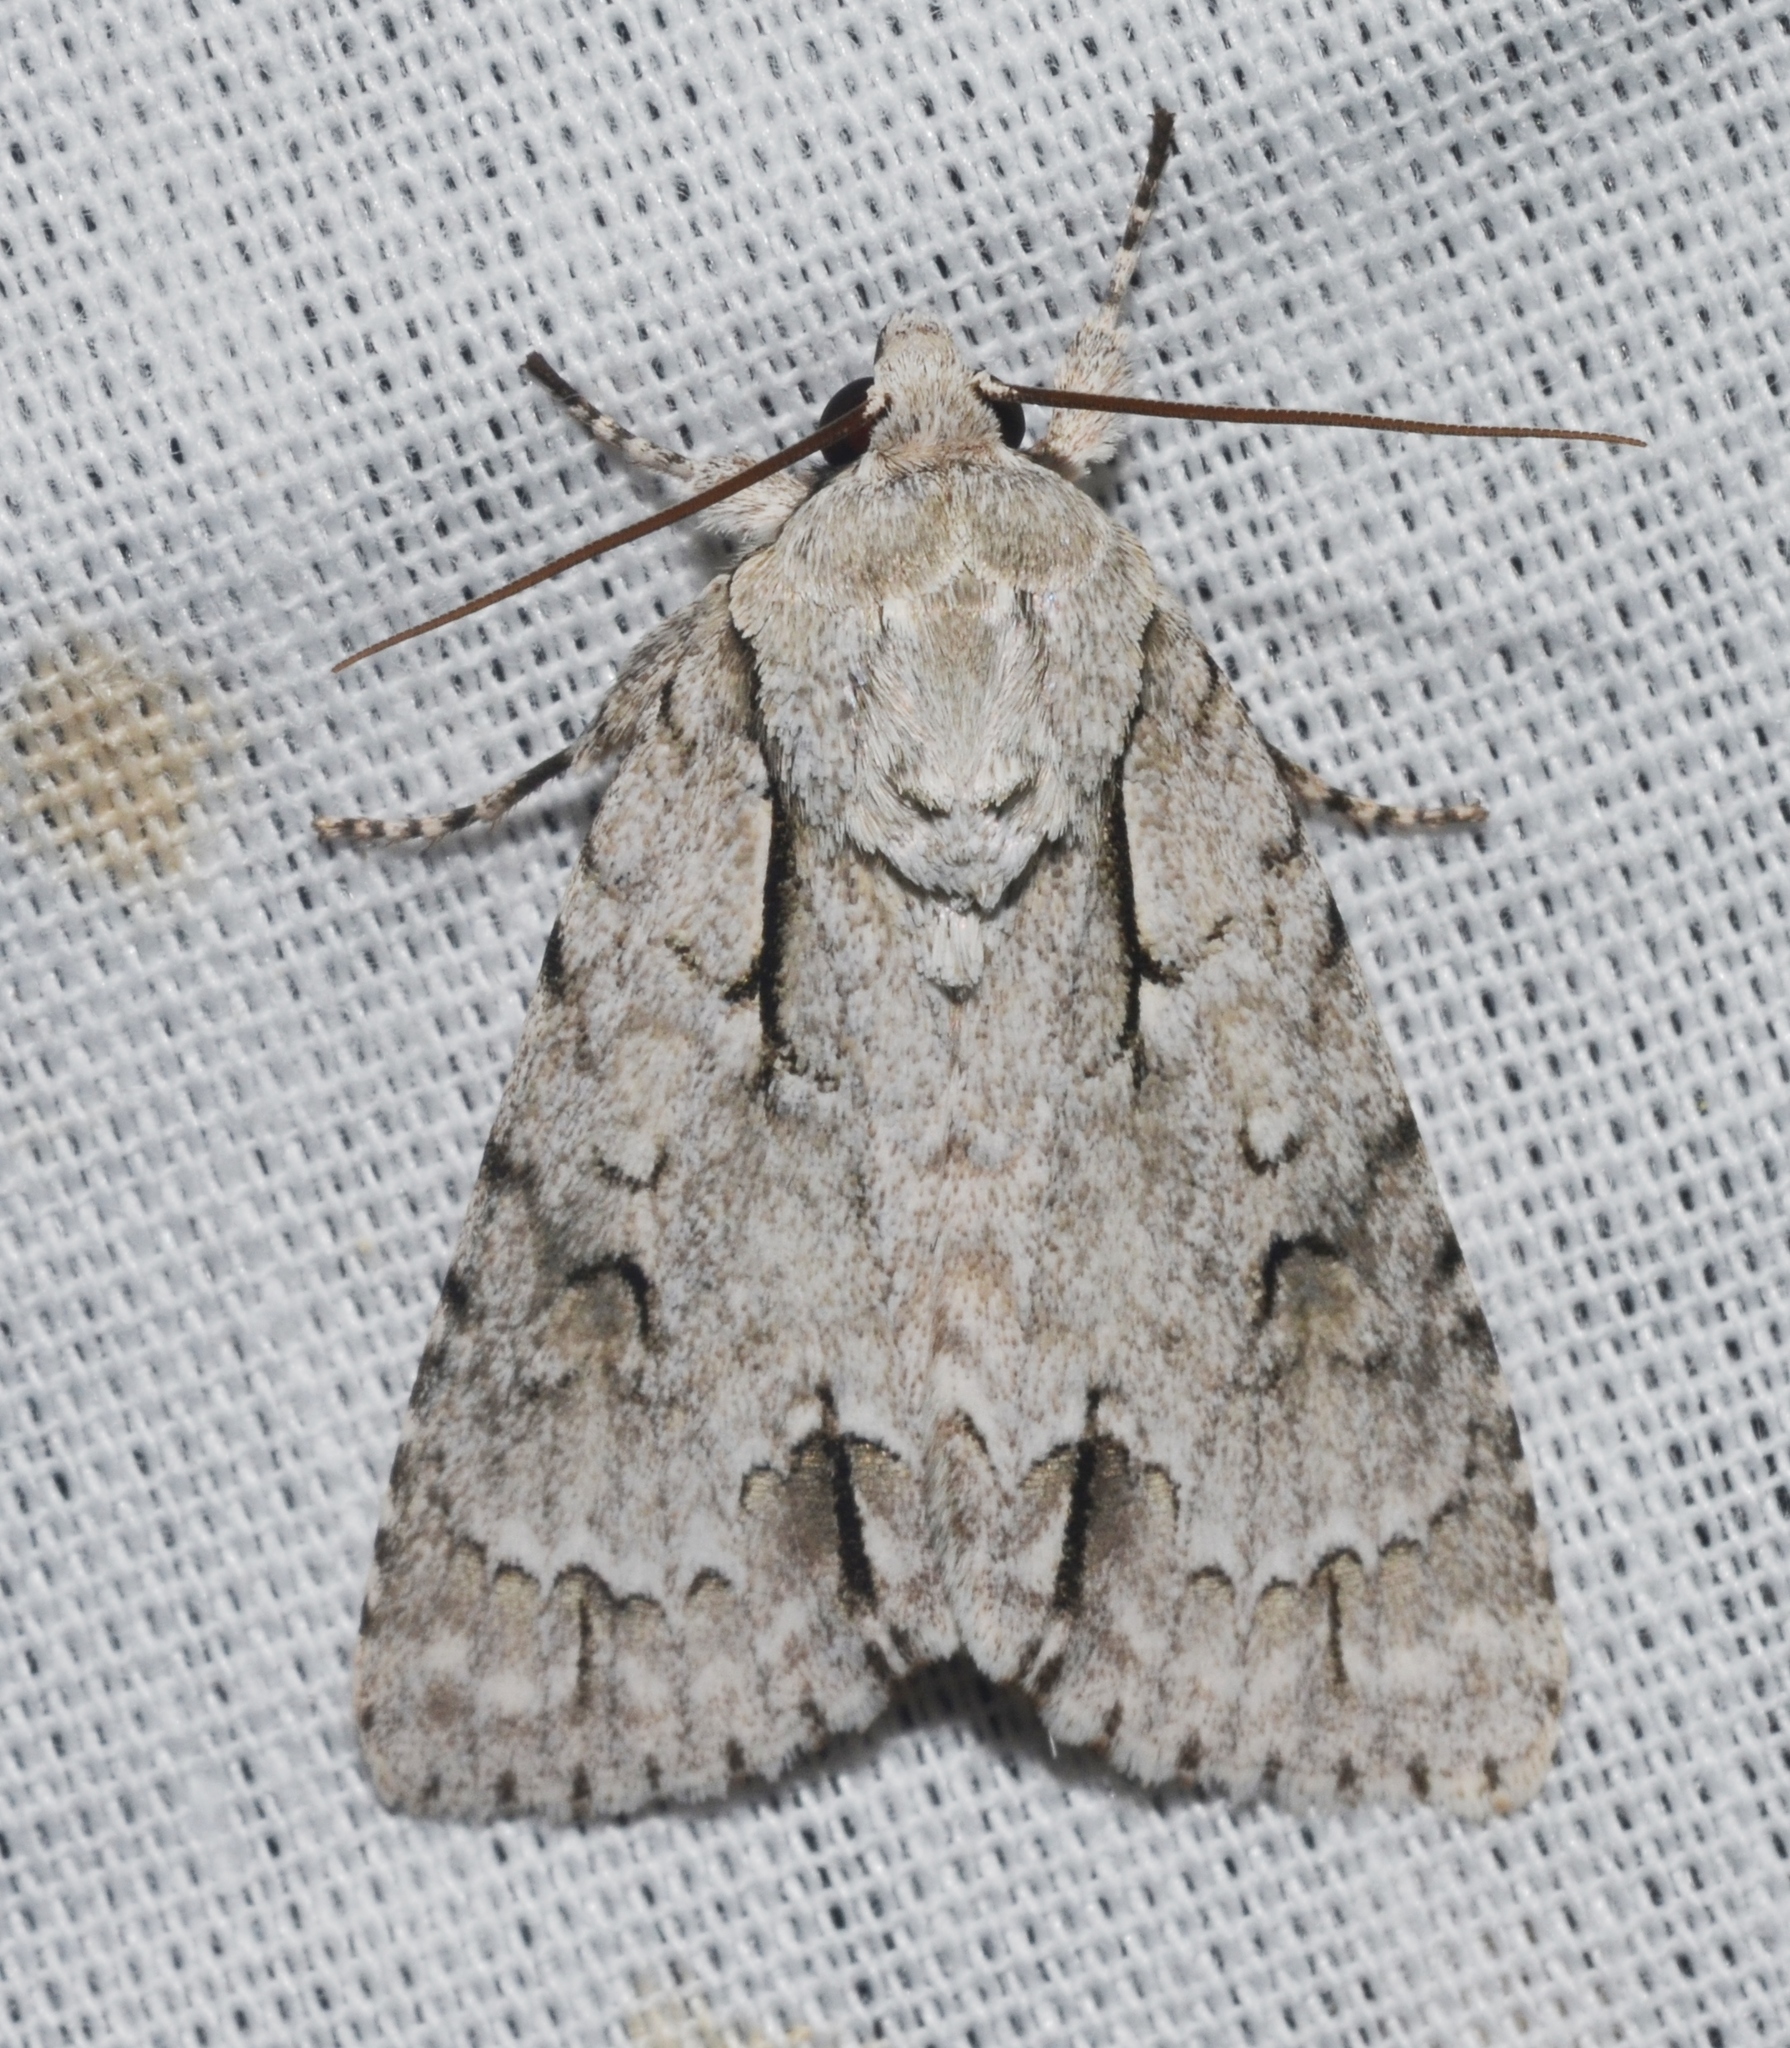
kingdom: Animalia
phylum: Arthropoda
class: Insecta
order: Lepidoptera
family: Noctuidae
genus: Acronicta
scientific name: Acronicta interrupta
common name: Interrupted dagger
